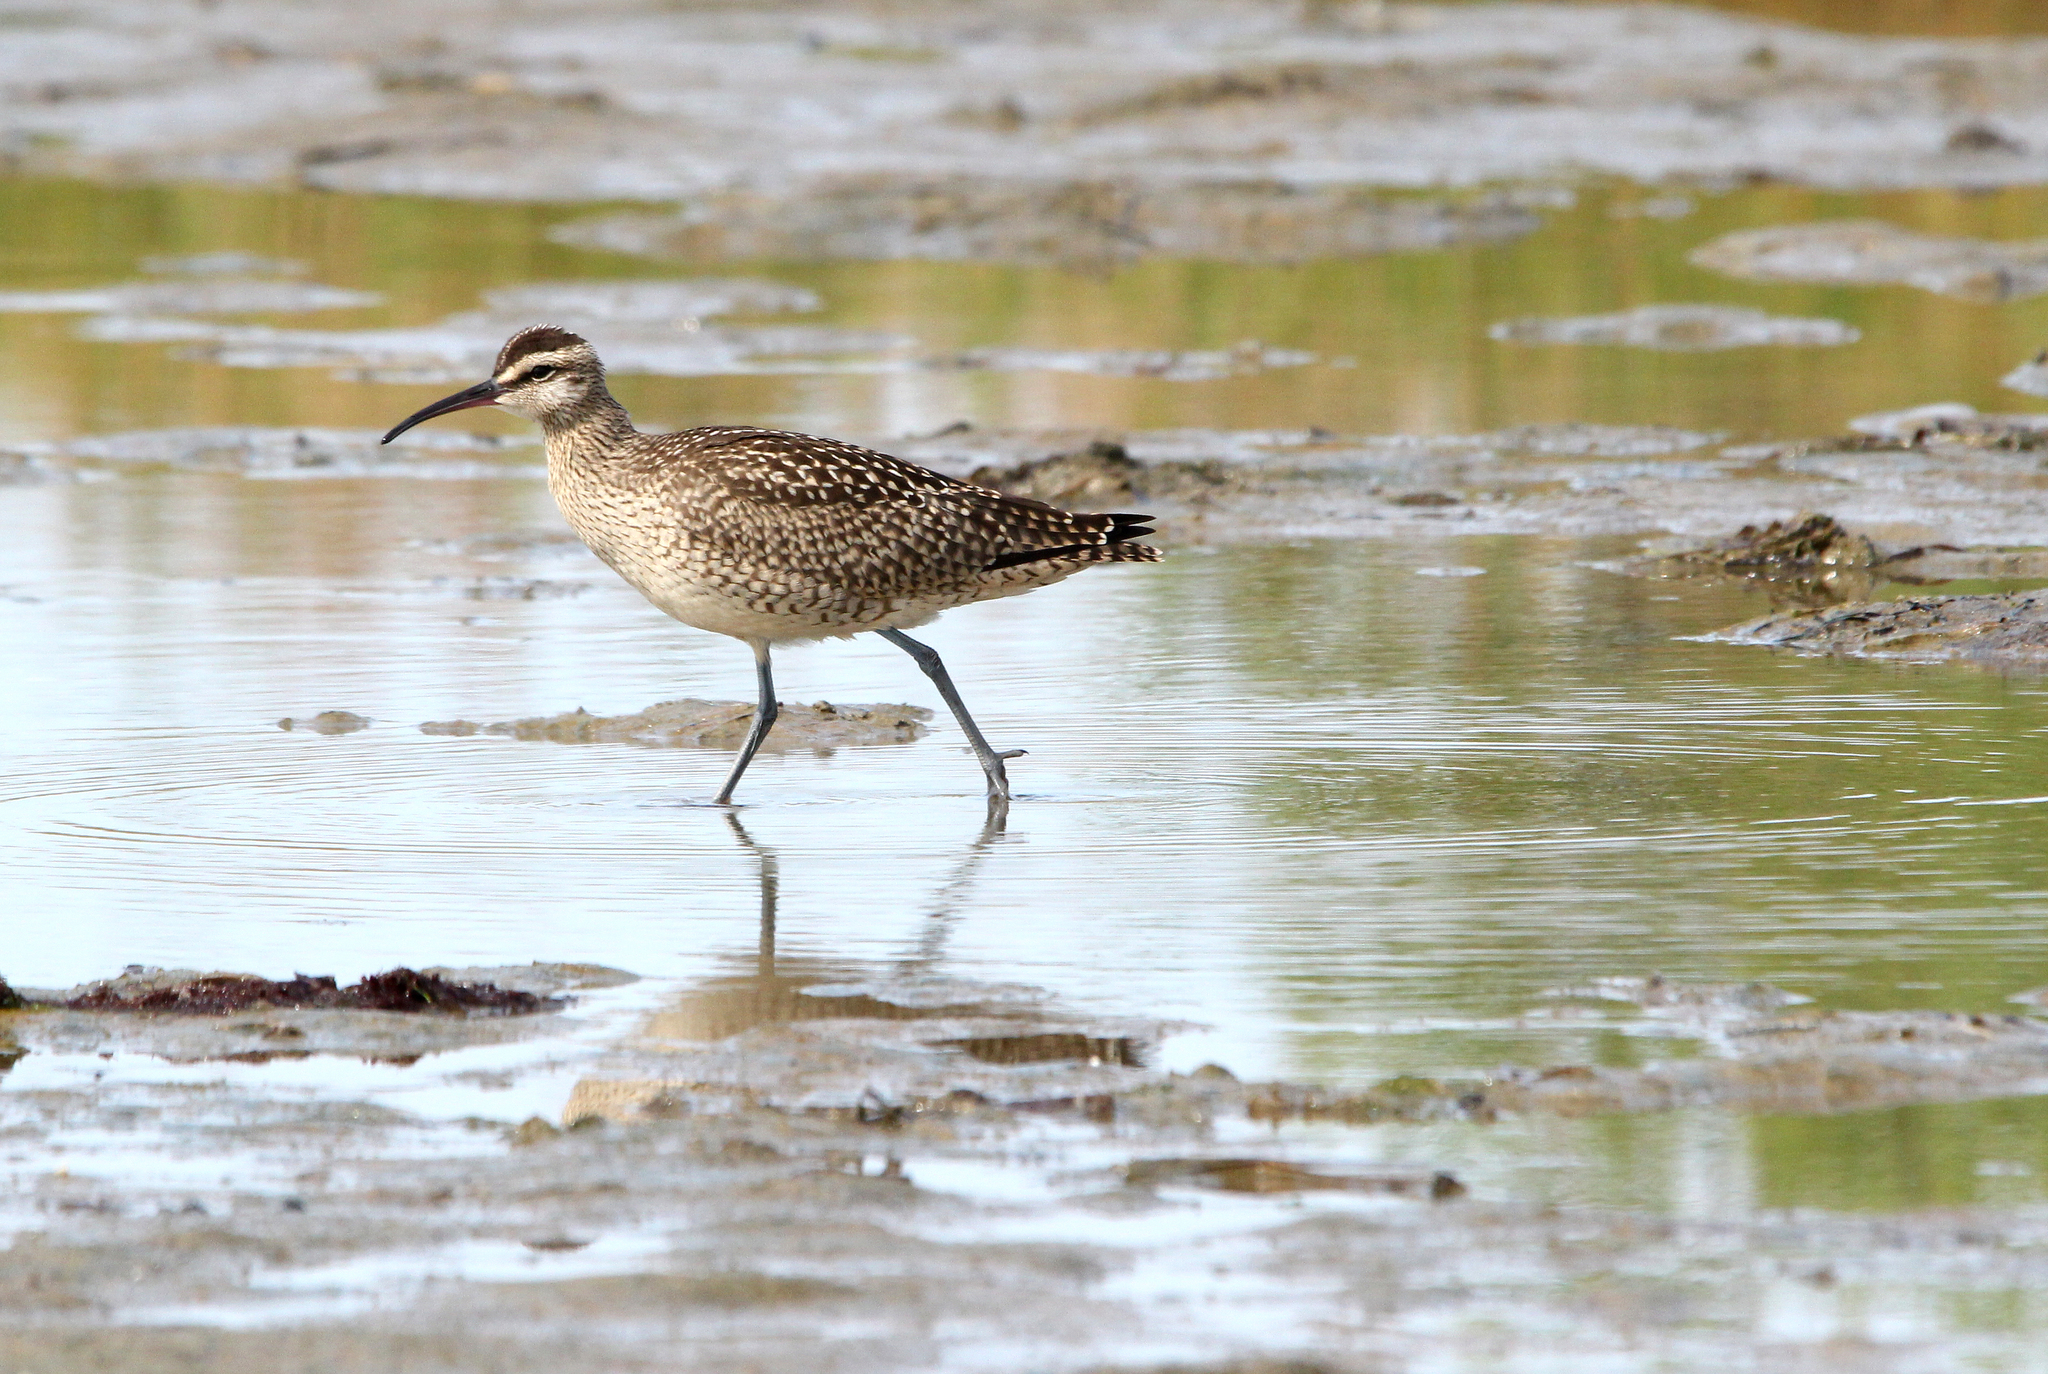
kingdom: Animalia
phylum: Chordata
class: Aves
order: Charadriiformes
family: Scolopacidae
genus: Numenius
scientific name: Numenius phaeopus
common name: Whimbrel
